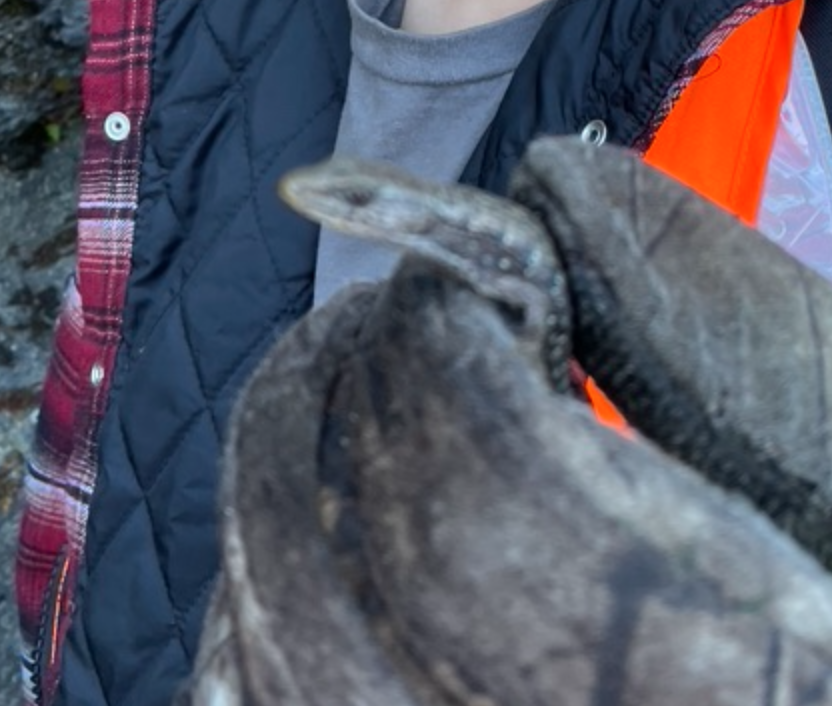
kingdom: Animalia
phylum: Chordata
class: Squamata
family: Anguidae
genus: Elgaria
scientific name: Elgaria coerulea
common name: Northern alligator lizard
